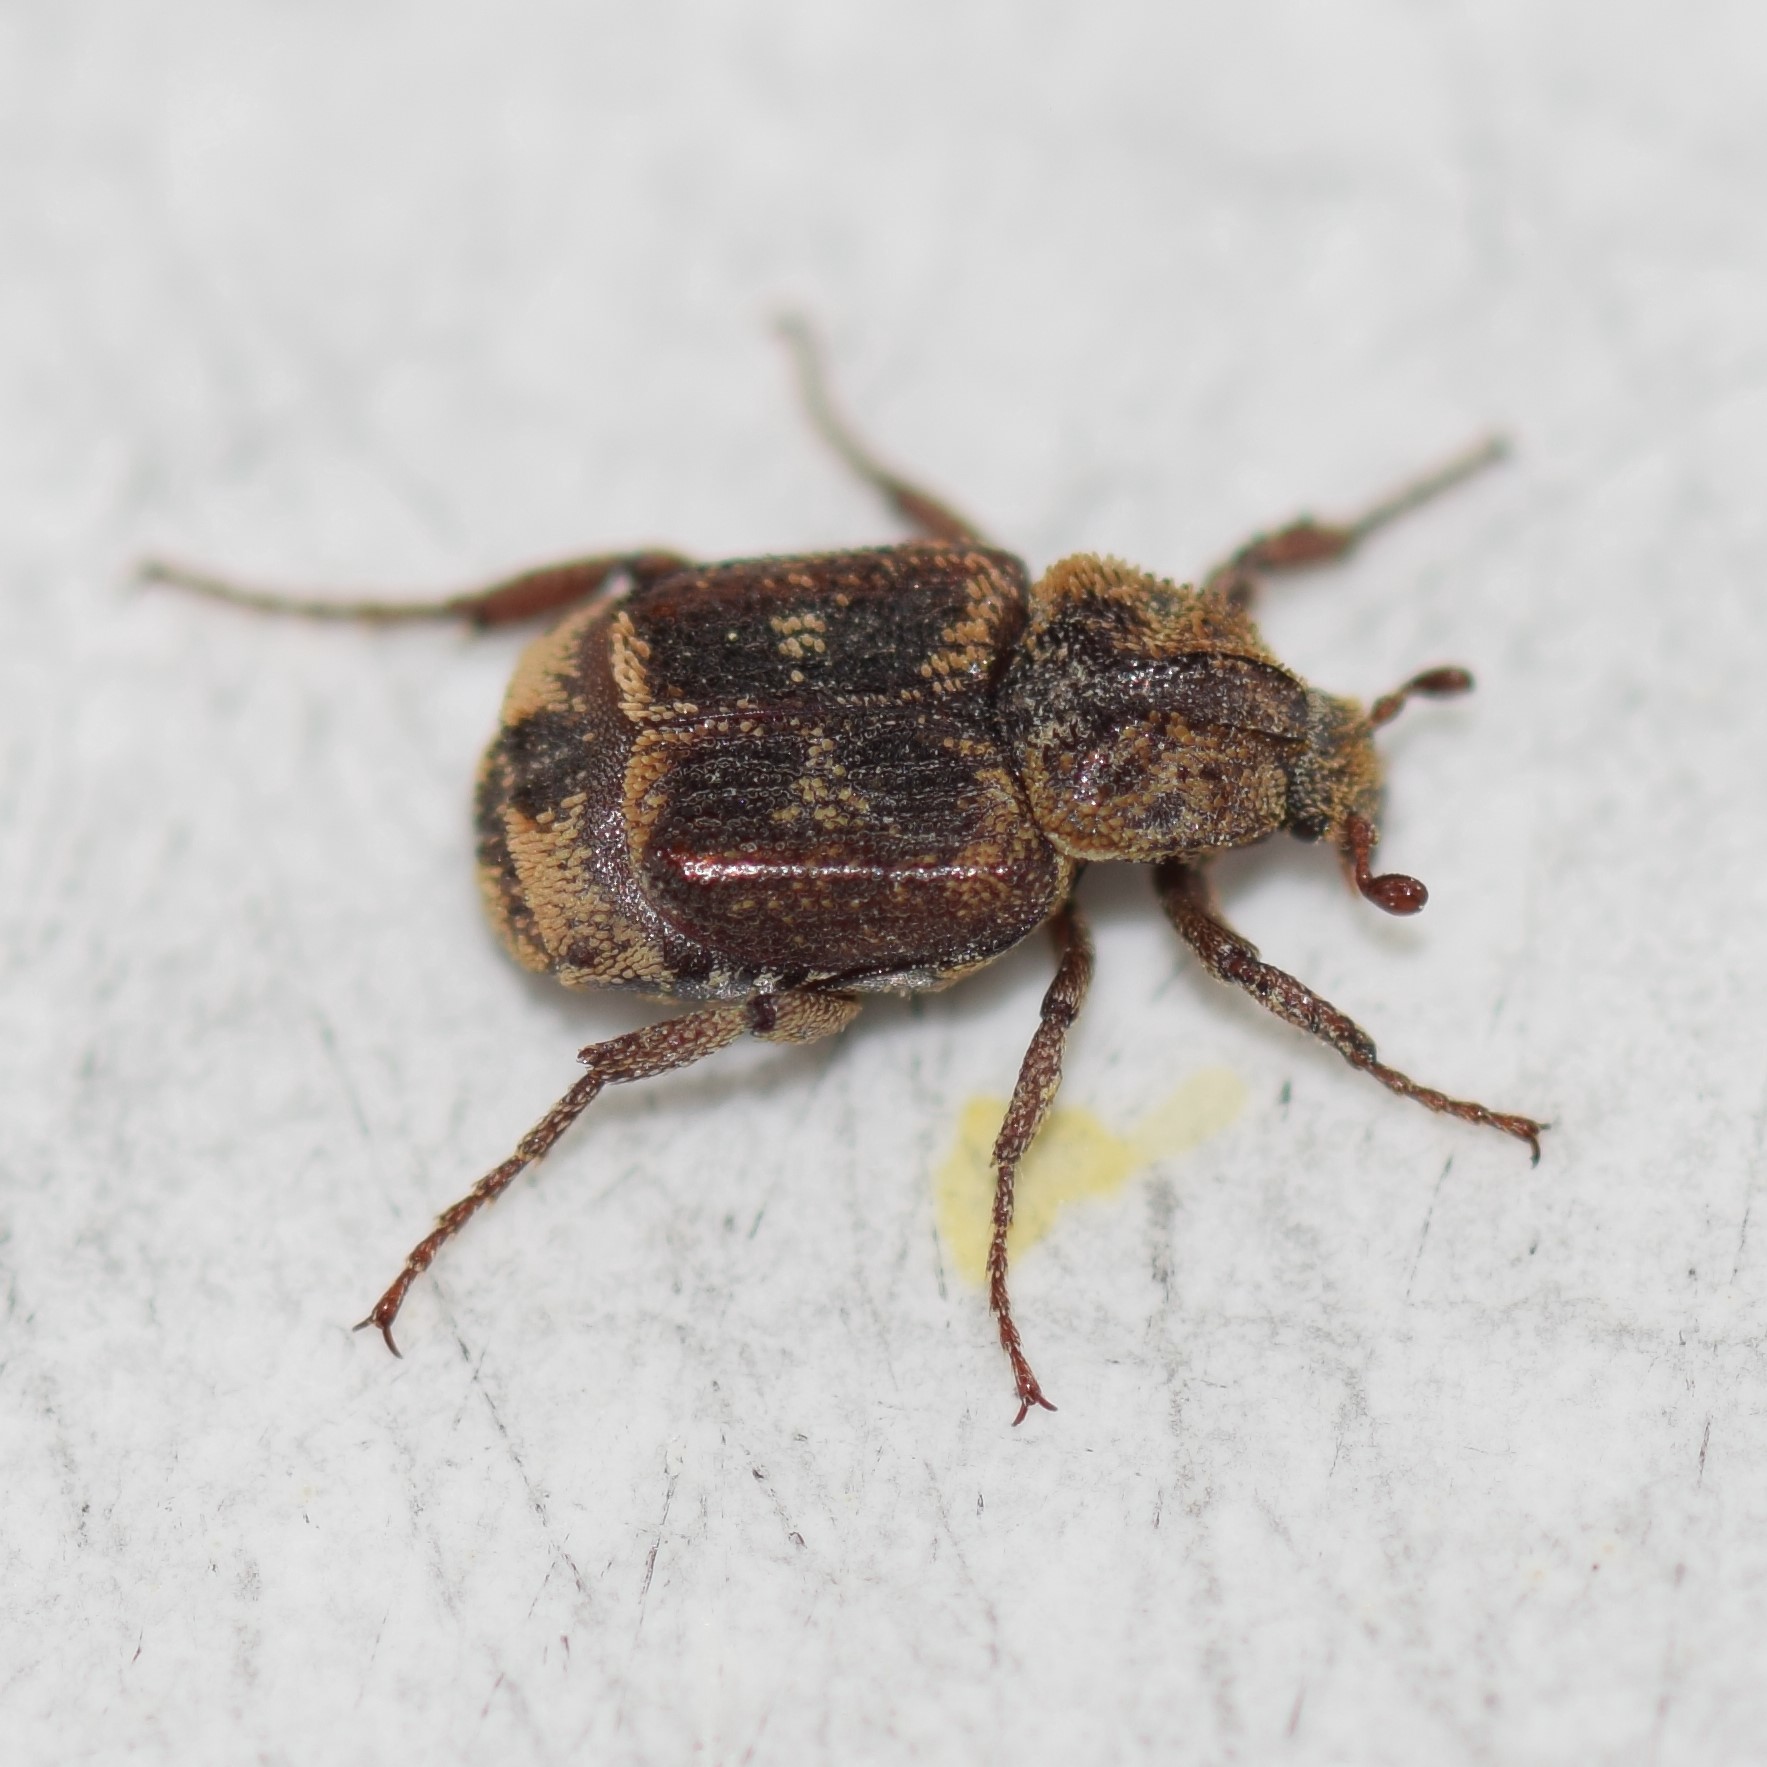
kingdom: Animalia
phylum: Arthropoda
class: Insecta
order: Coleoptera
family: Scarabaeidae
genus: Valgus
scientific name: Valgus canaliculatus
